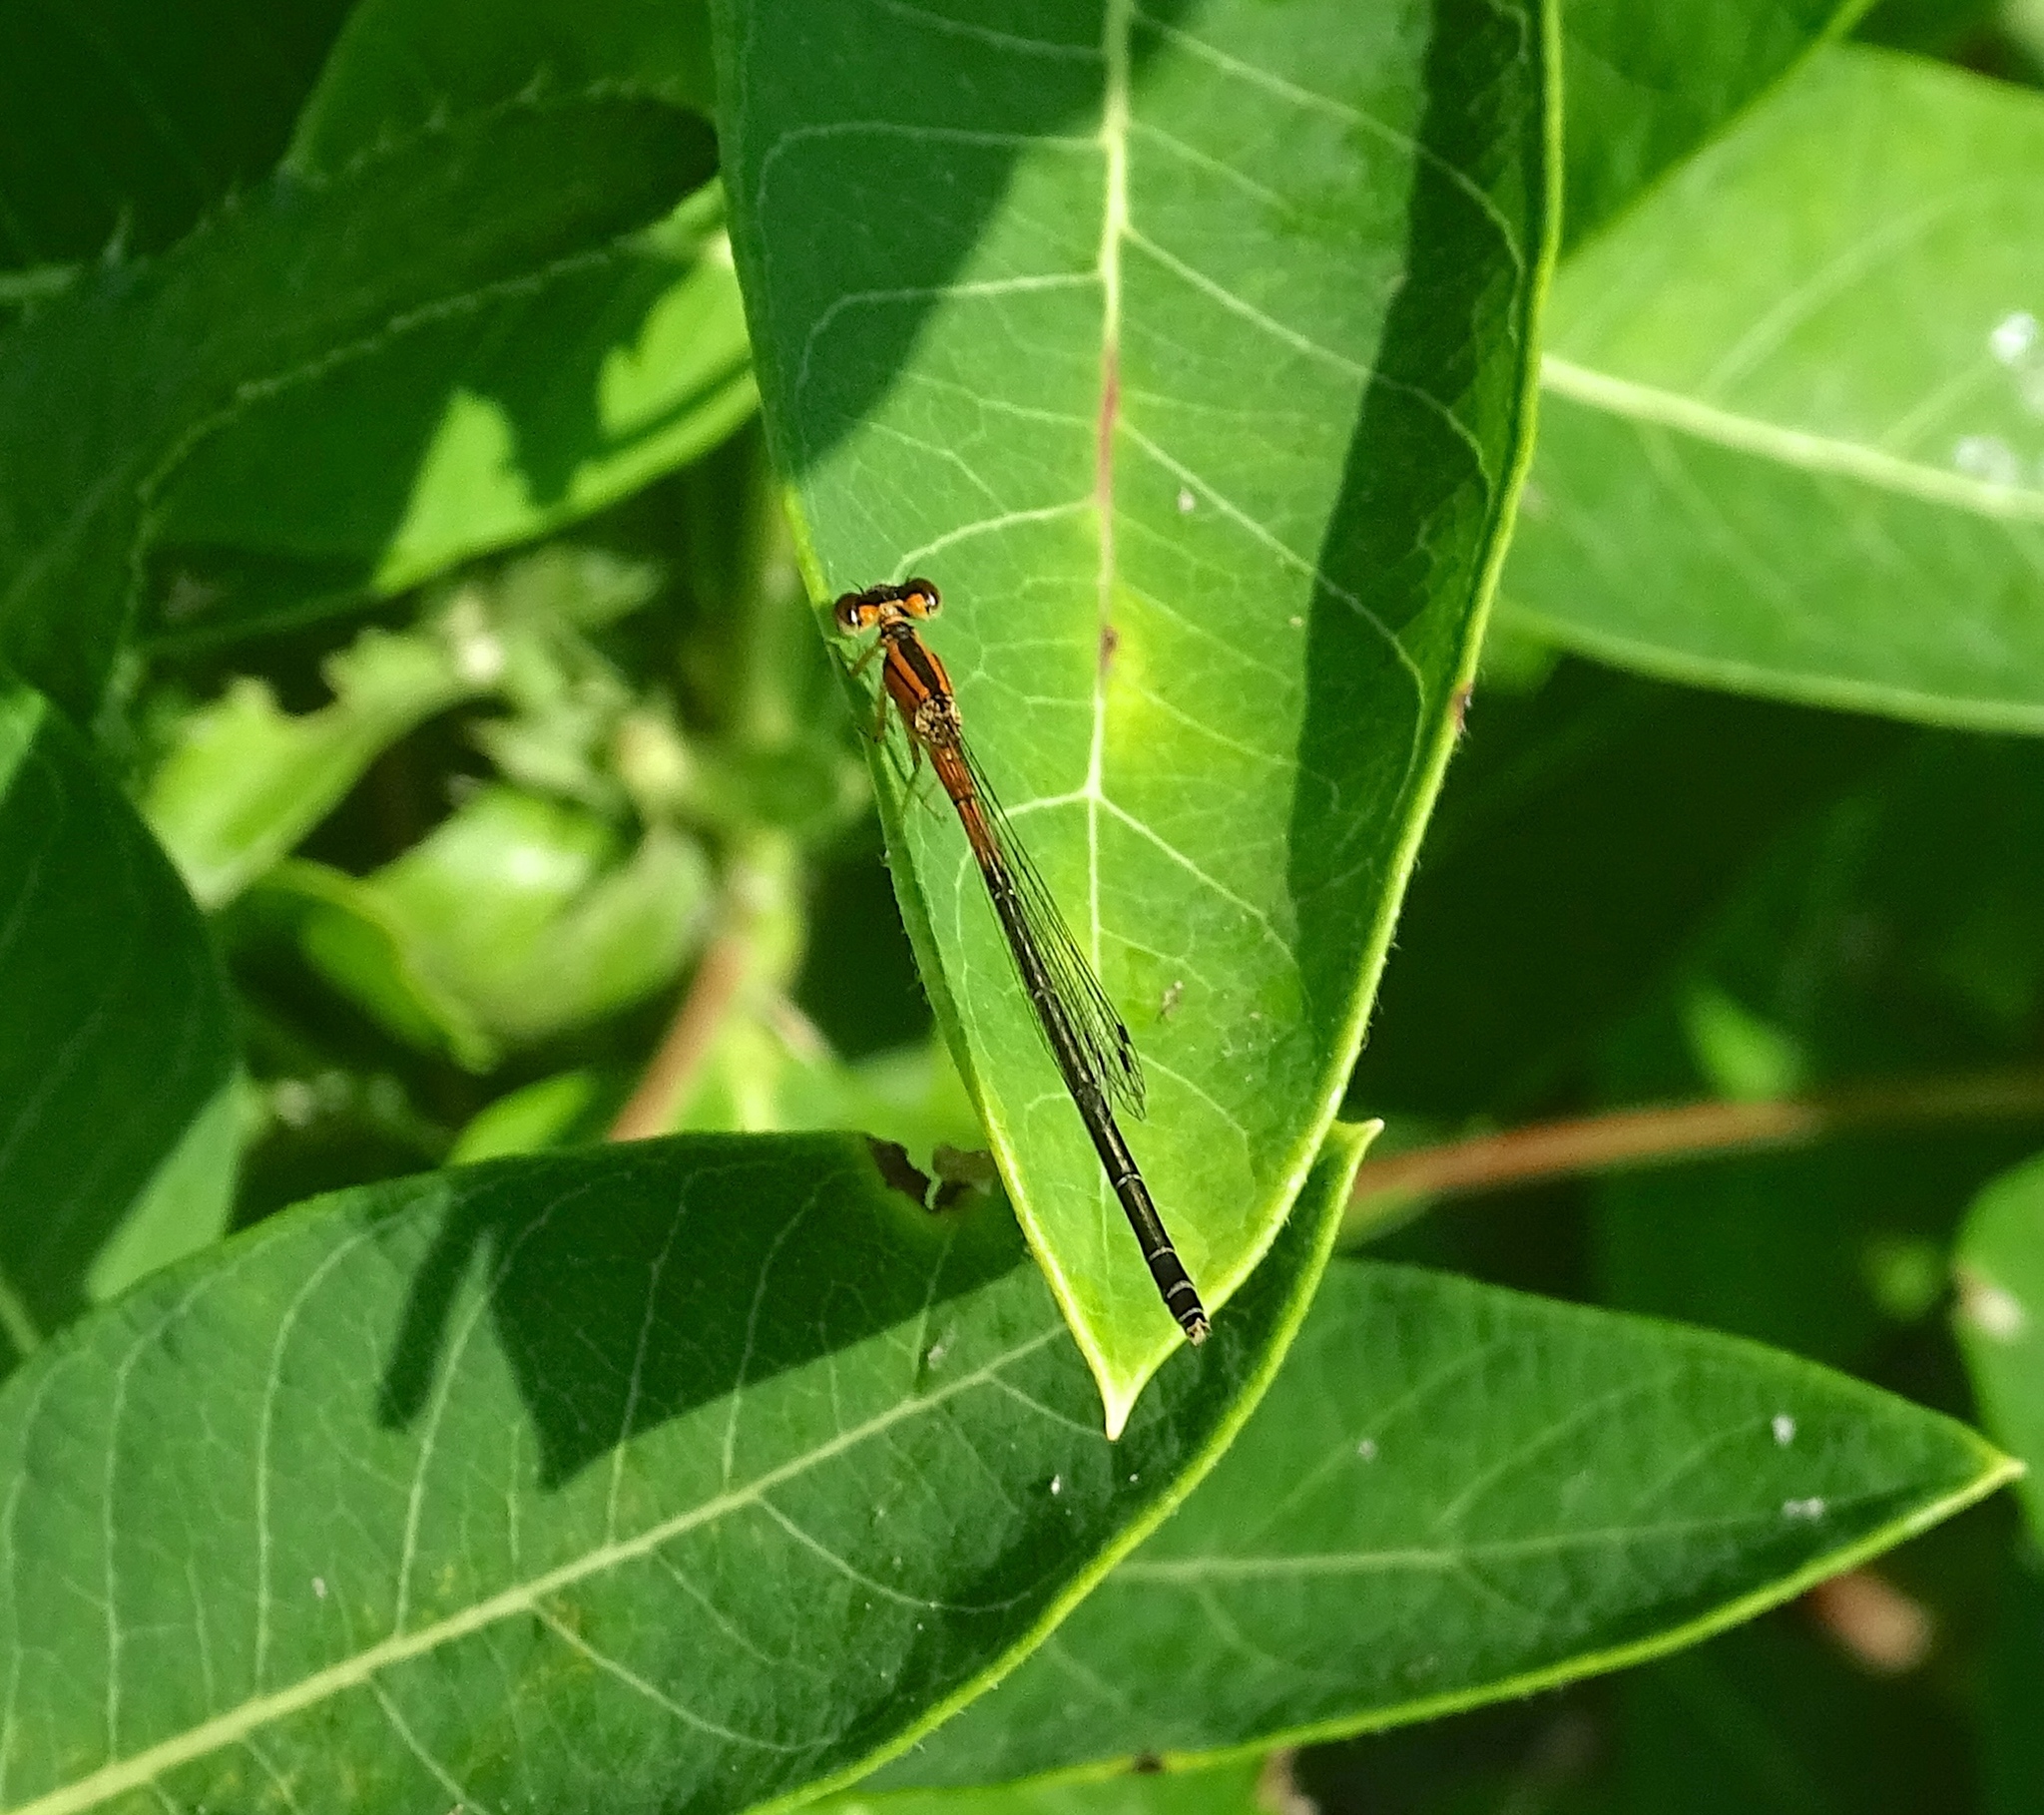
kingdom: Animalia
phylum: Arthropoda
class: Insecta
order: Odonata
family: Coenagrionidae
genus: Ischnura
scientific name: Ischnura verticalis
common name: Eastern forktail
